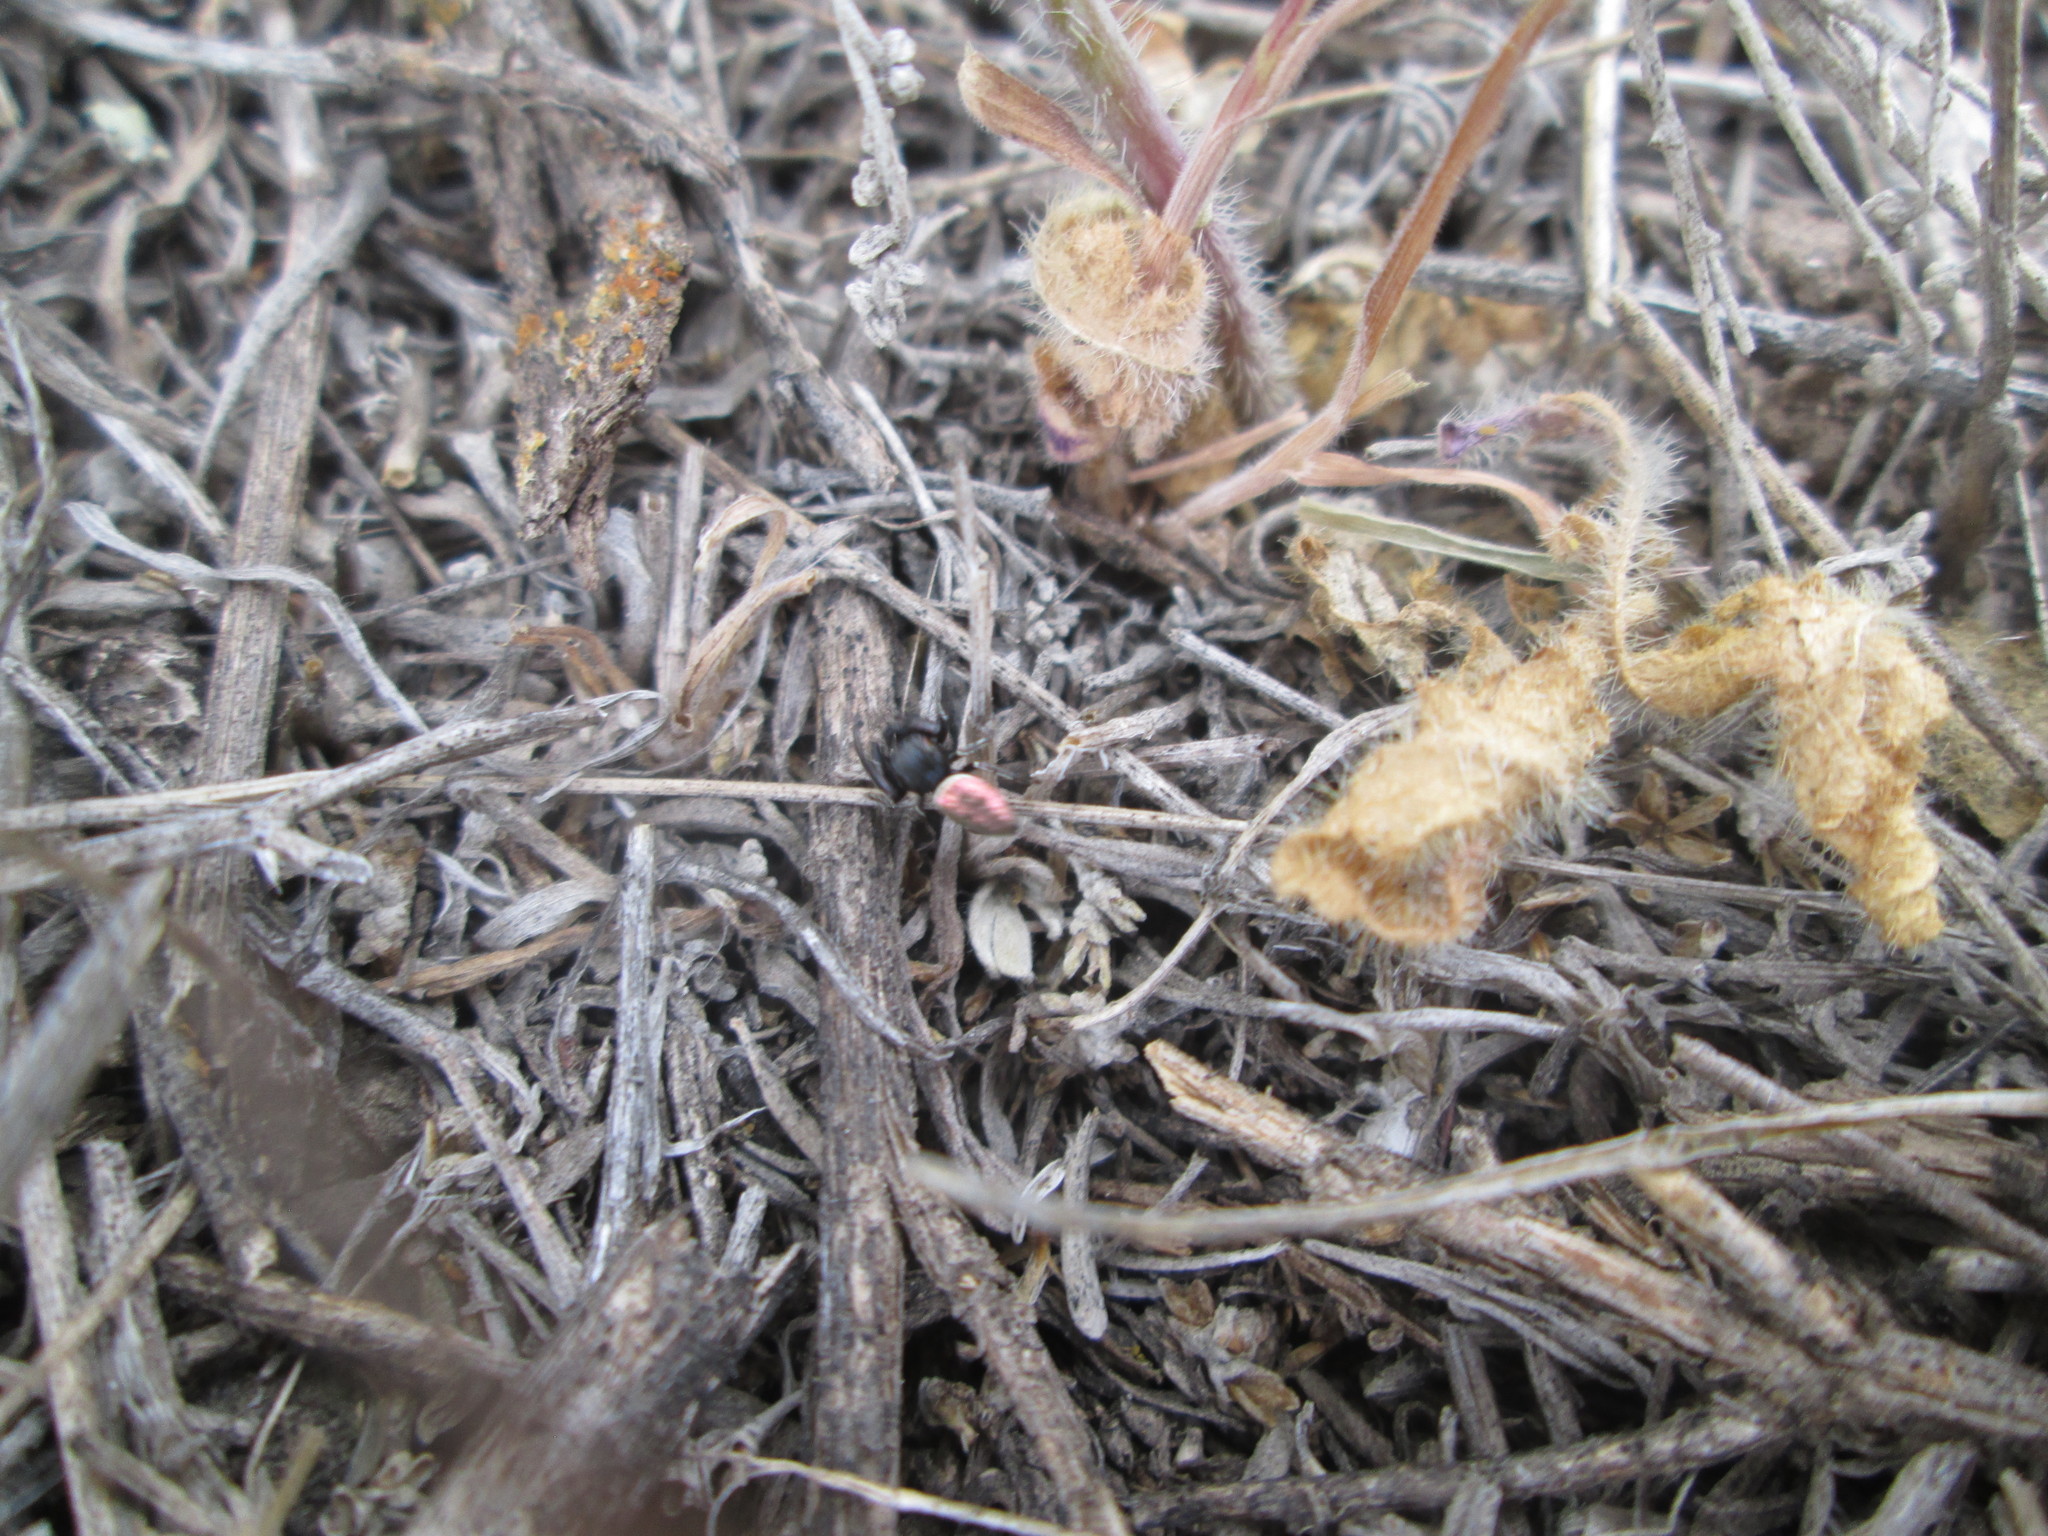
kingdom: Animalia
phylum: Arthropoda
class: Arachnida
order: Araneae
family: Salticidae
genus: Sassacus
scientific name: Sassacus papenhoei
